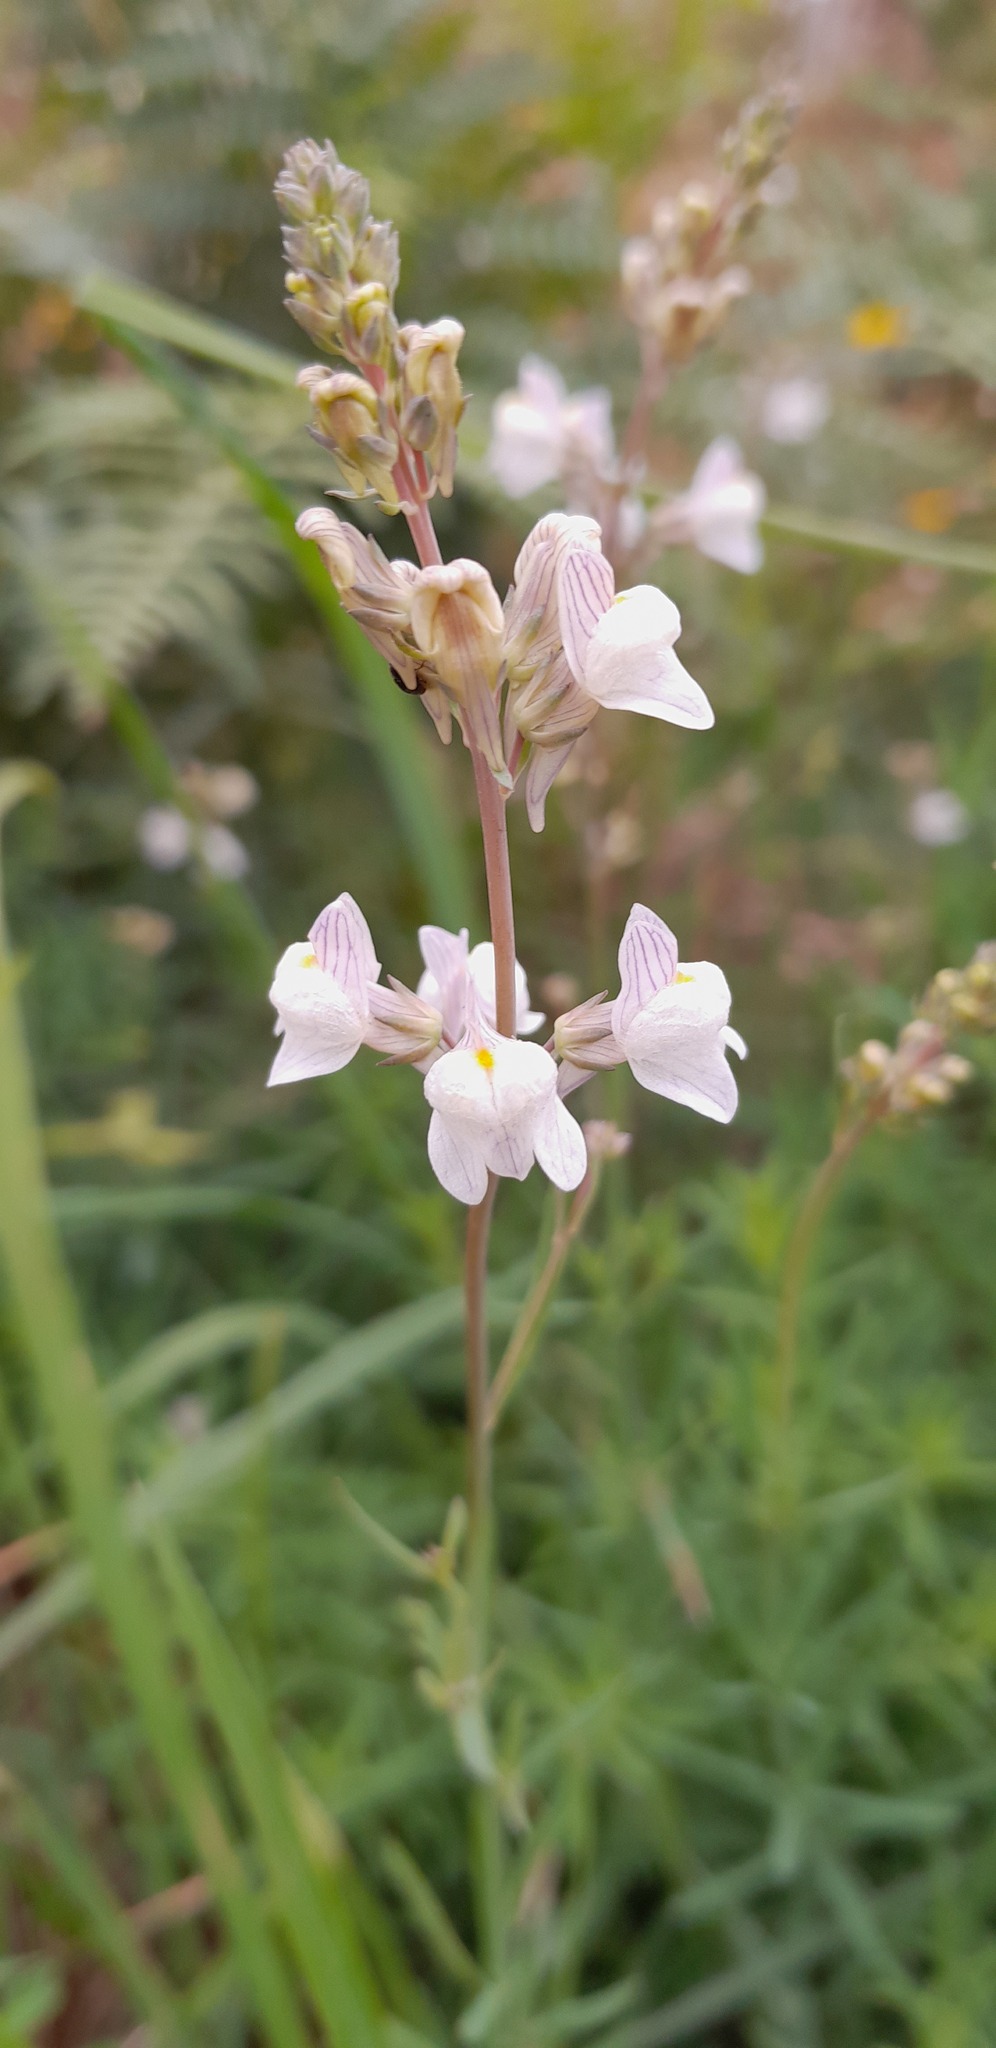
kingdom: Plantae
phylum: Tracheophyta
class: Magnoliopsida
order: Lamiales
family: Plantaginaceae
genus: Linaria
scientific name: Linaria repens
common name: Pale toadflax
